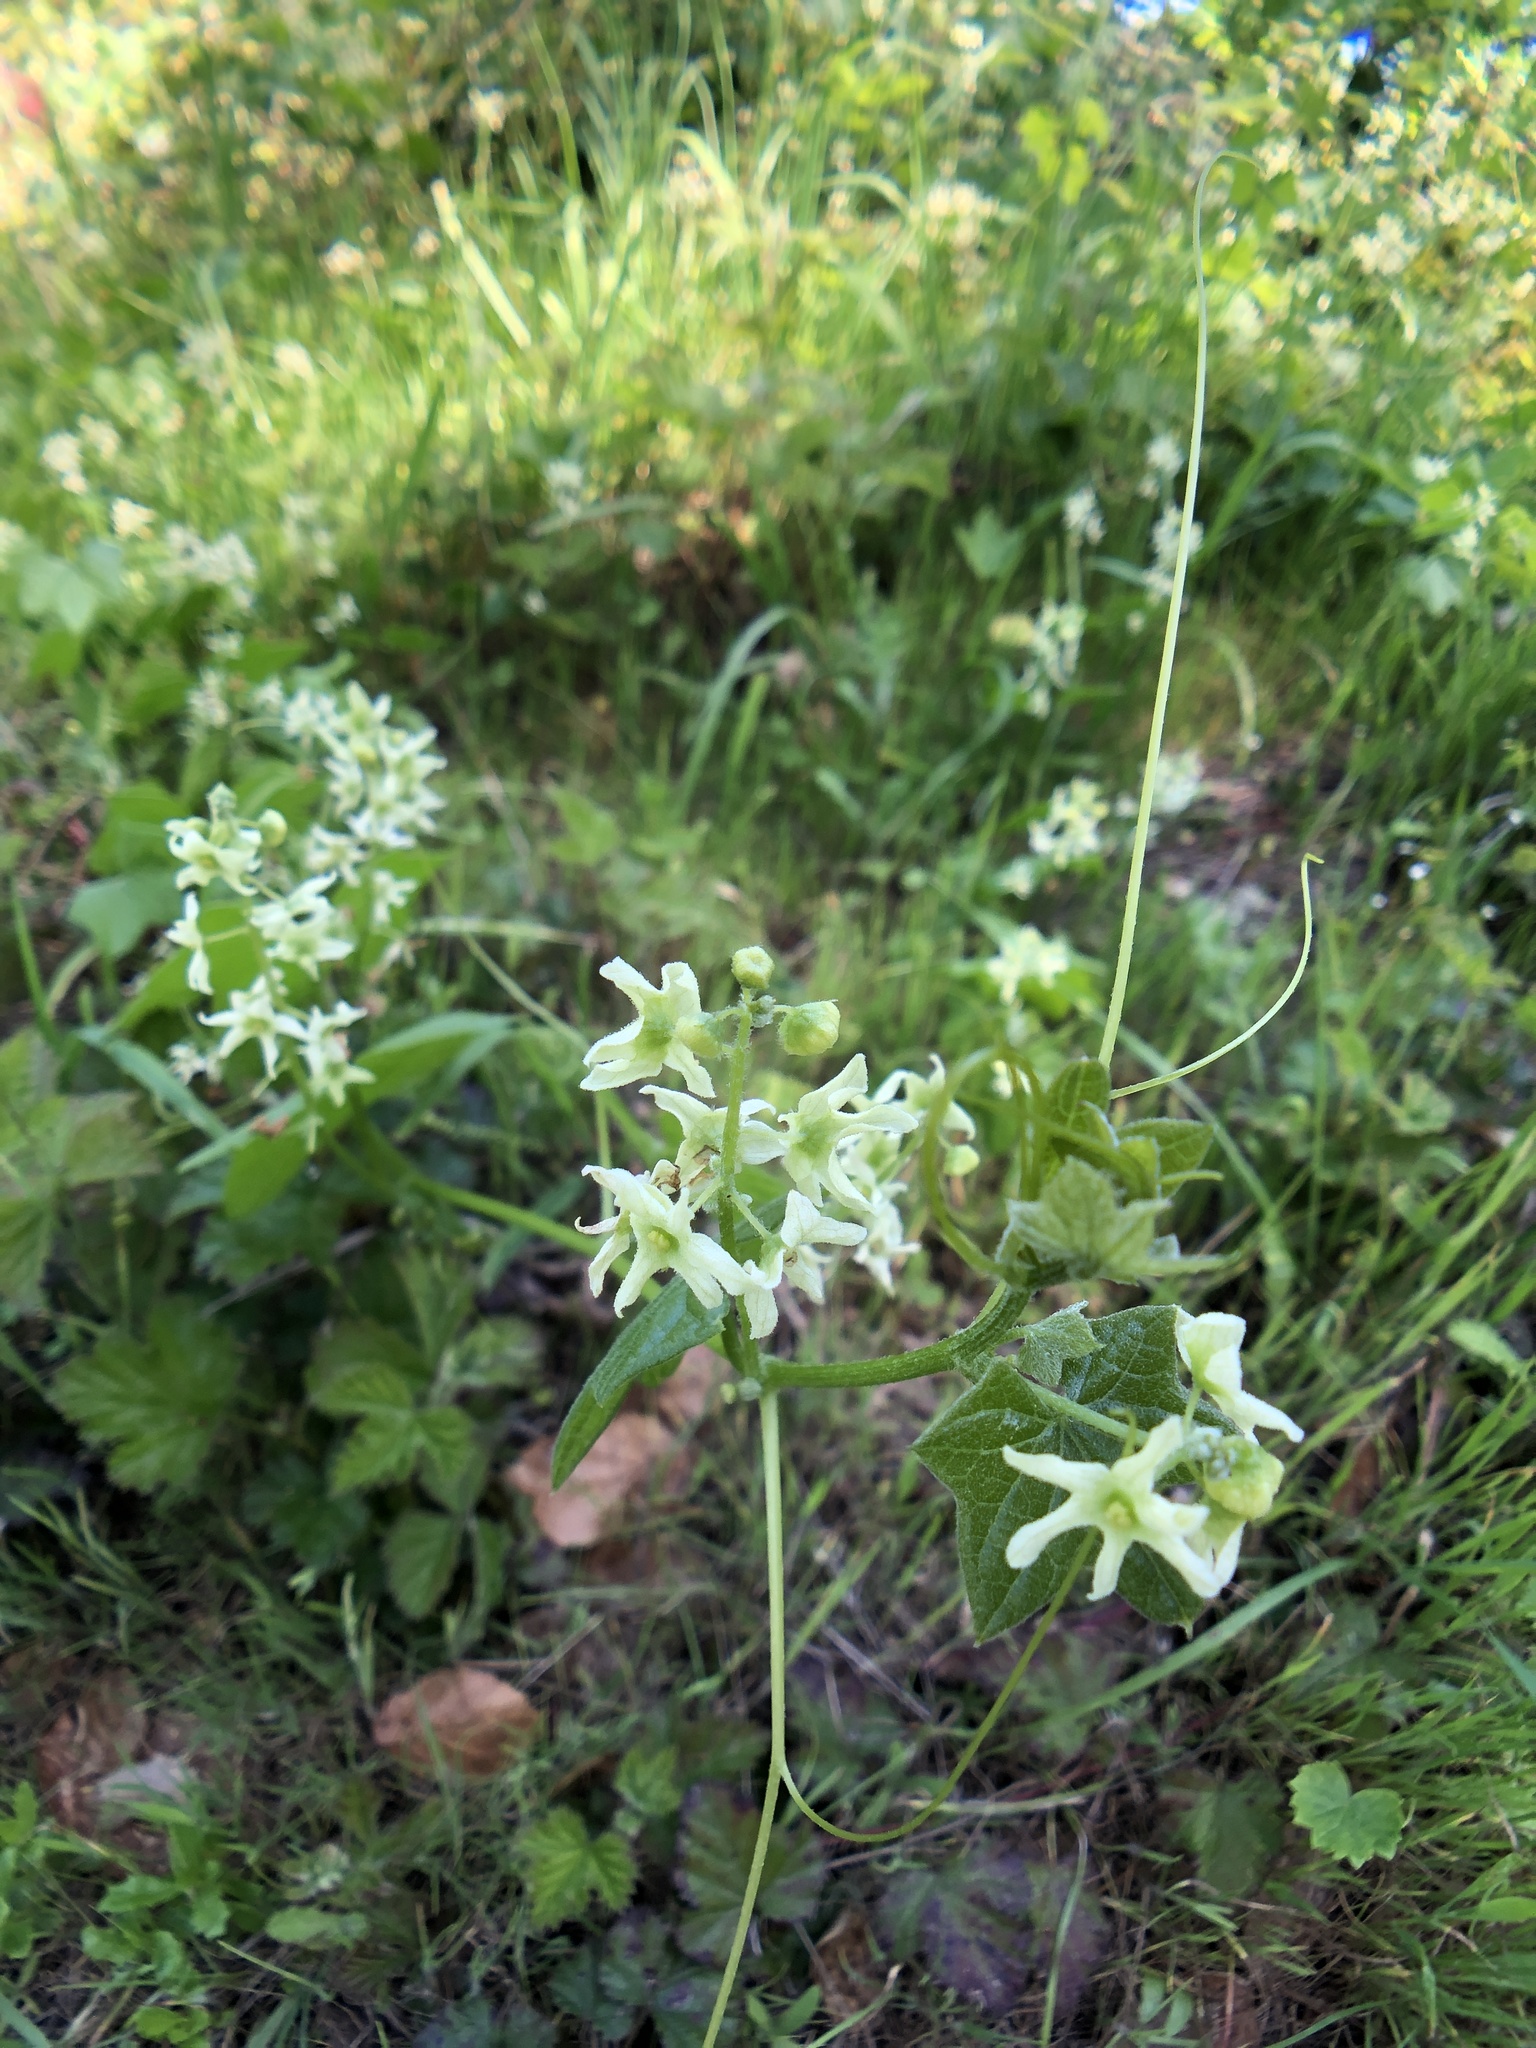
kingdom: Plantae
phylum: Tracheophyta
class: Magnoliopsida
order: Cucurbitales
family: Cucurbitaceae
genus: Marah
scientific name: Marah fabacea
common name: California manroot
